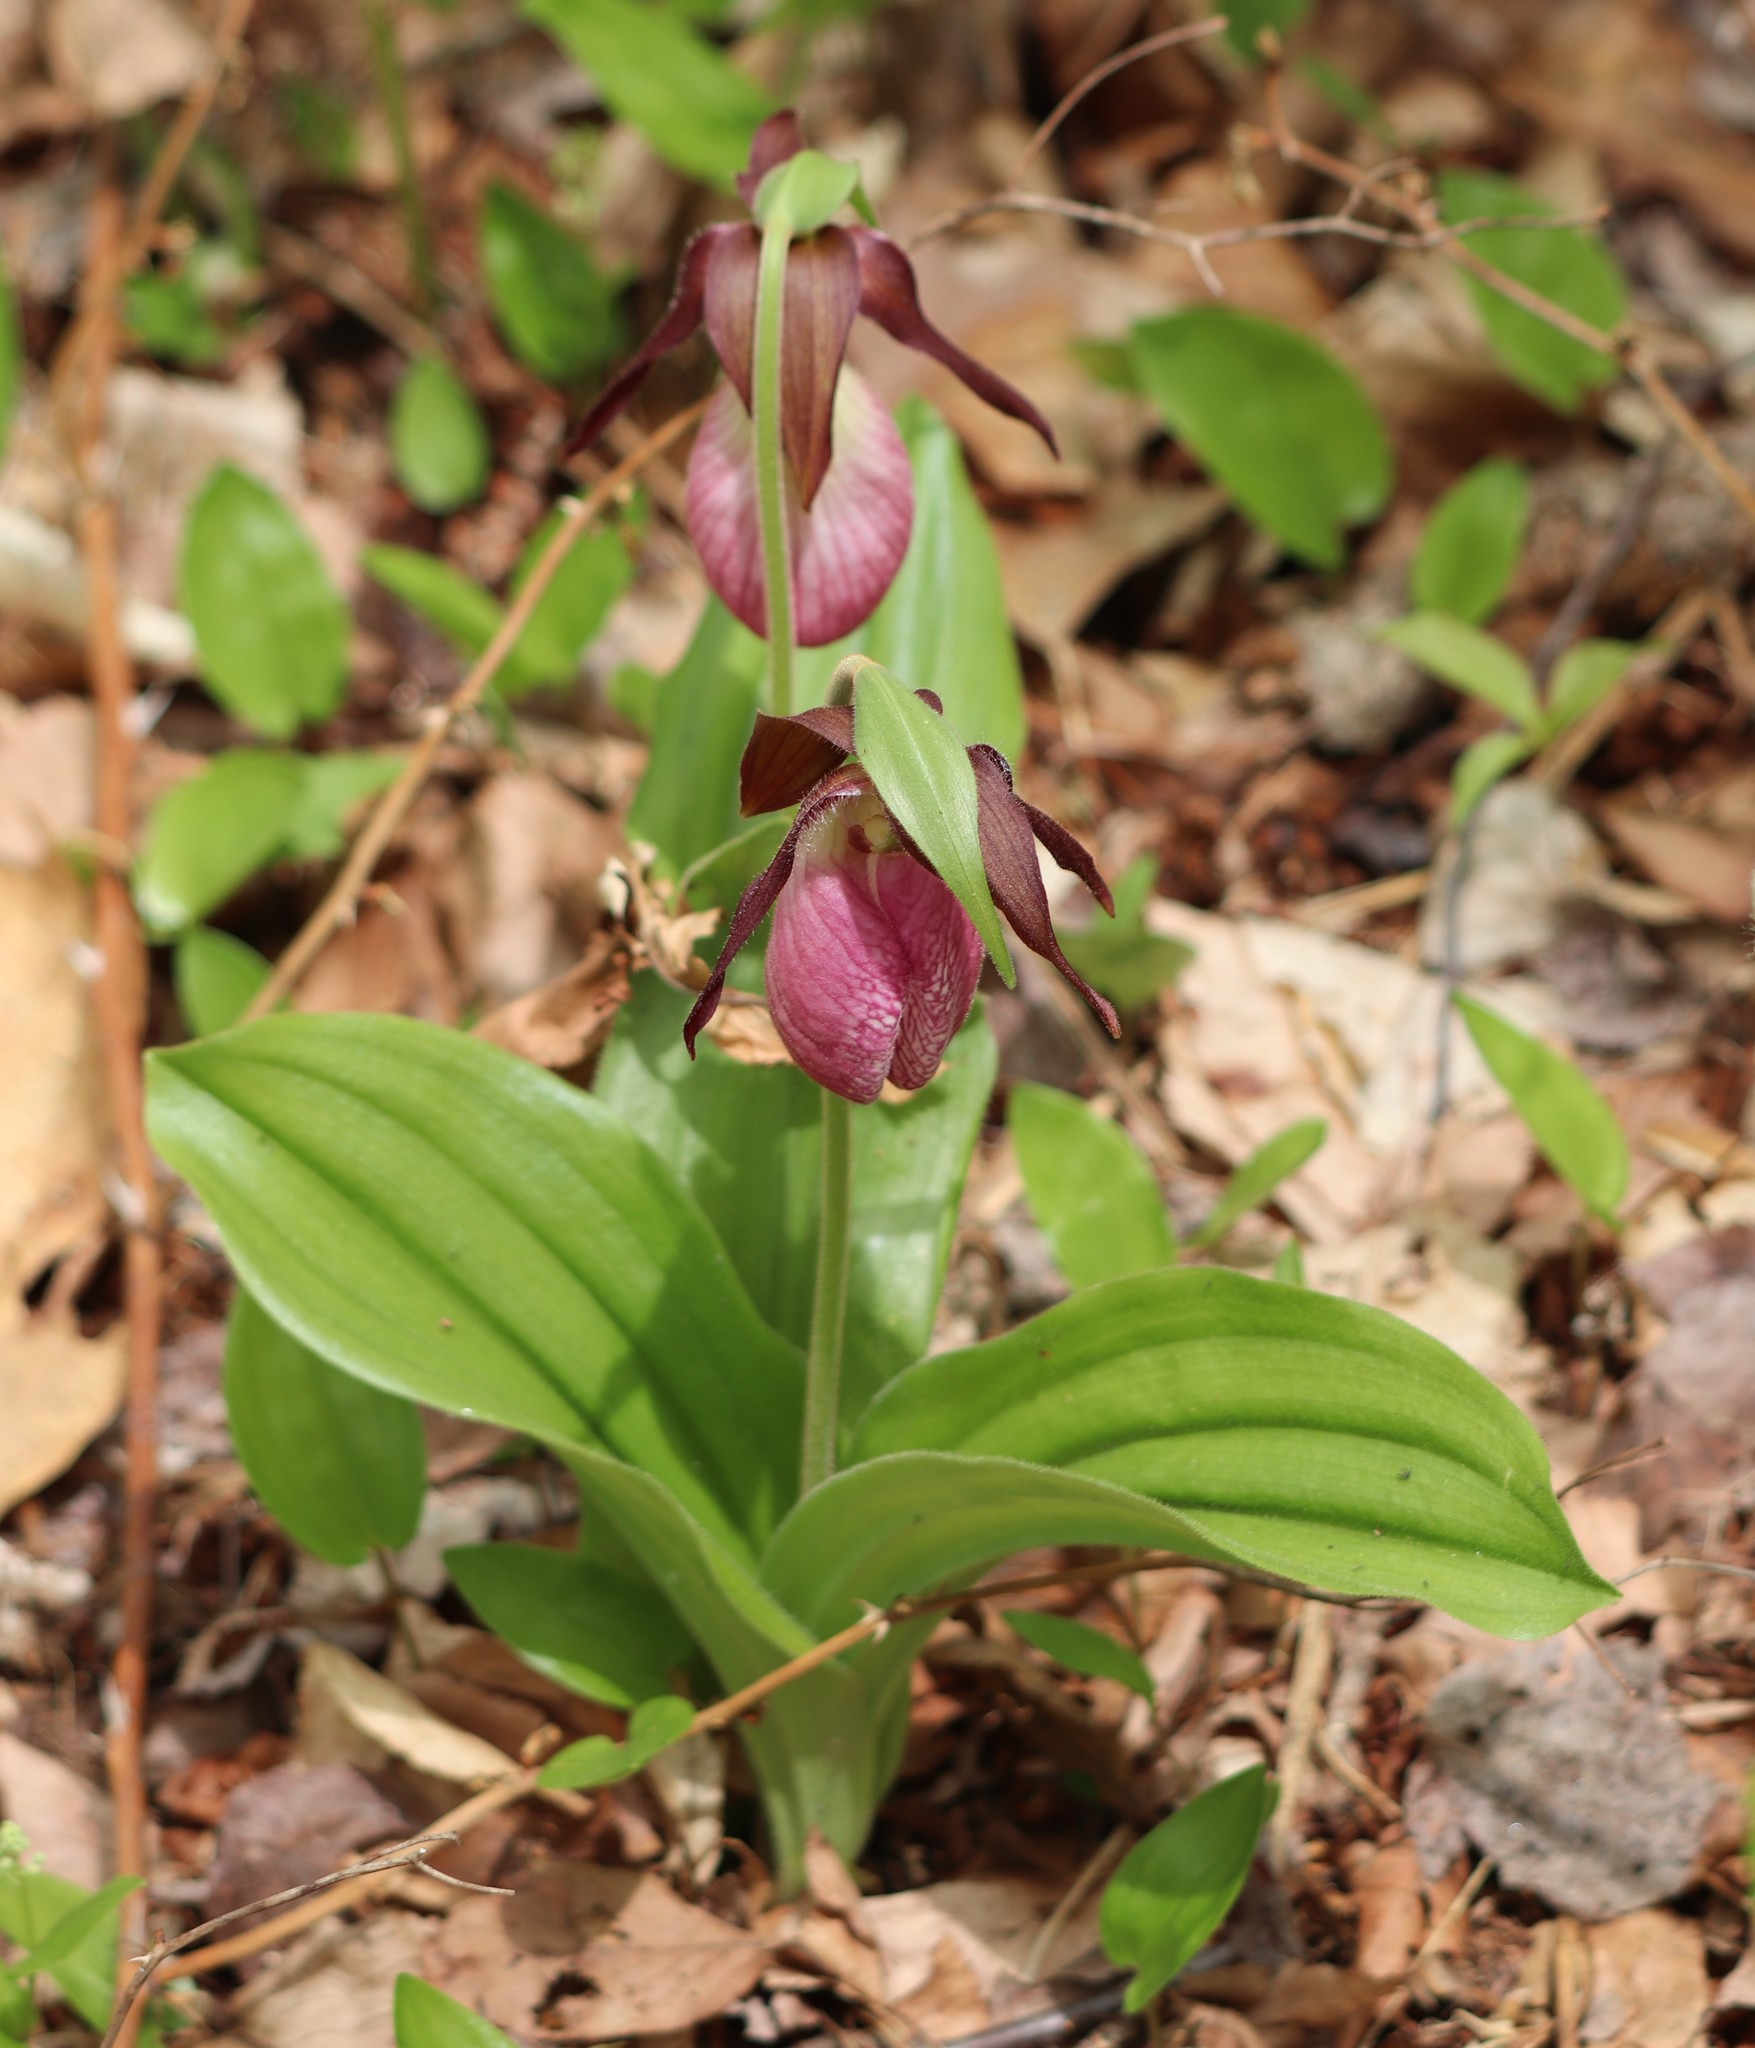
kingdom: Plantae
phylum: Tracheophyta
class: Liliopsida
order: Asparagales
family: Orchidaceae
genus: Cypripedium
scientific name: Cypripedium acaule
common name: Pink lady's-slipper
